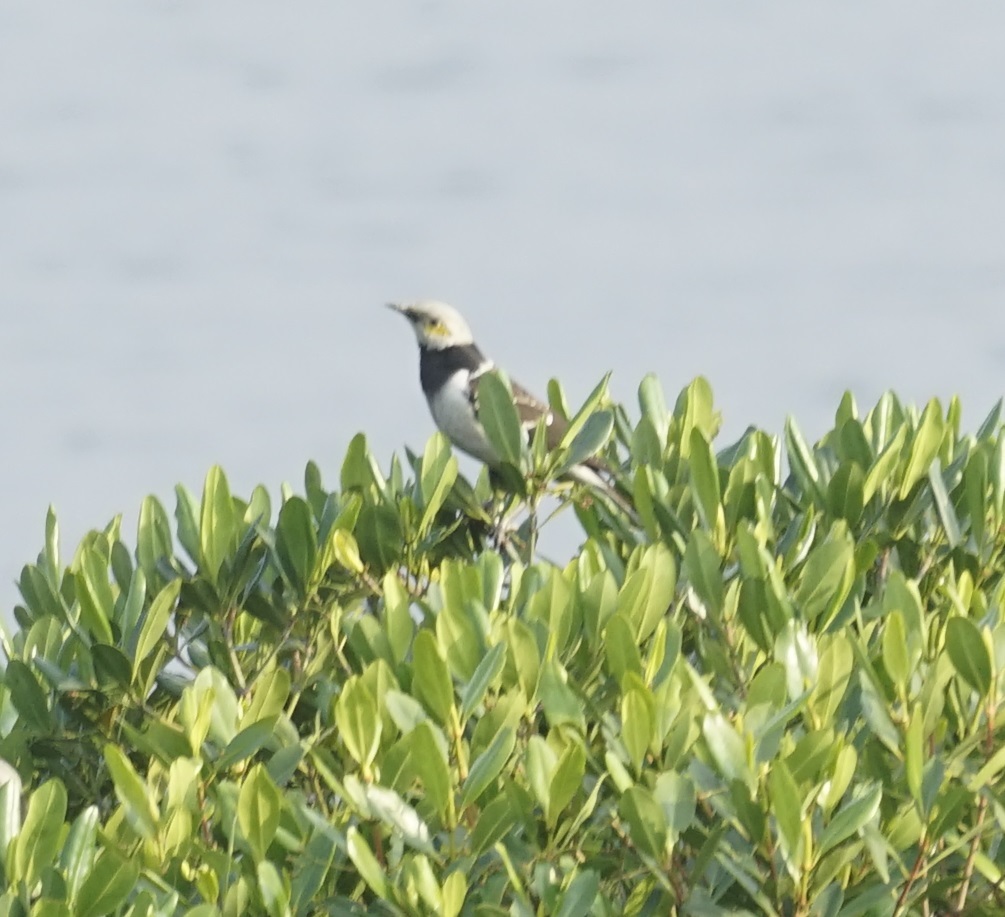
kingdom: Animalia
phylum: Chordata
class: Aves
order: Passeriformes
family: Sturnidae
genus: Gracupica
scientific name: Gracupica nigricollis
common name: Black-collared starling
